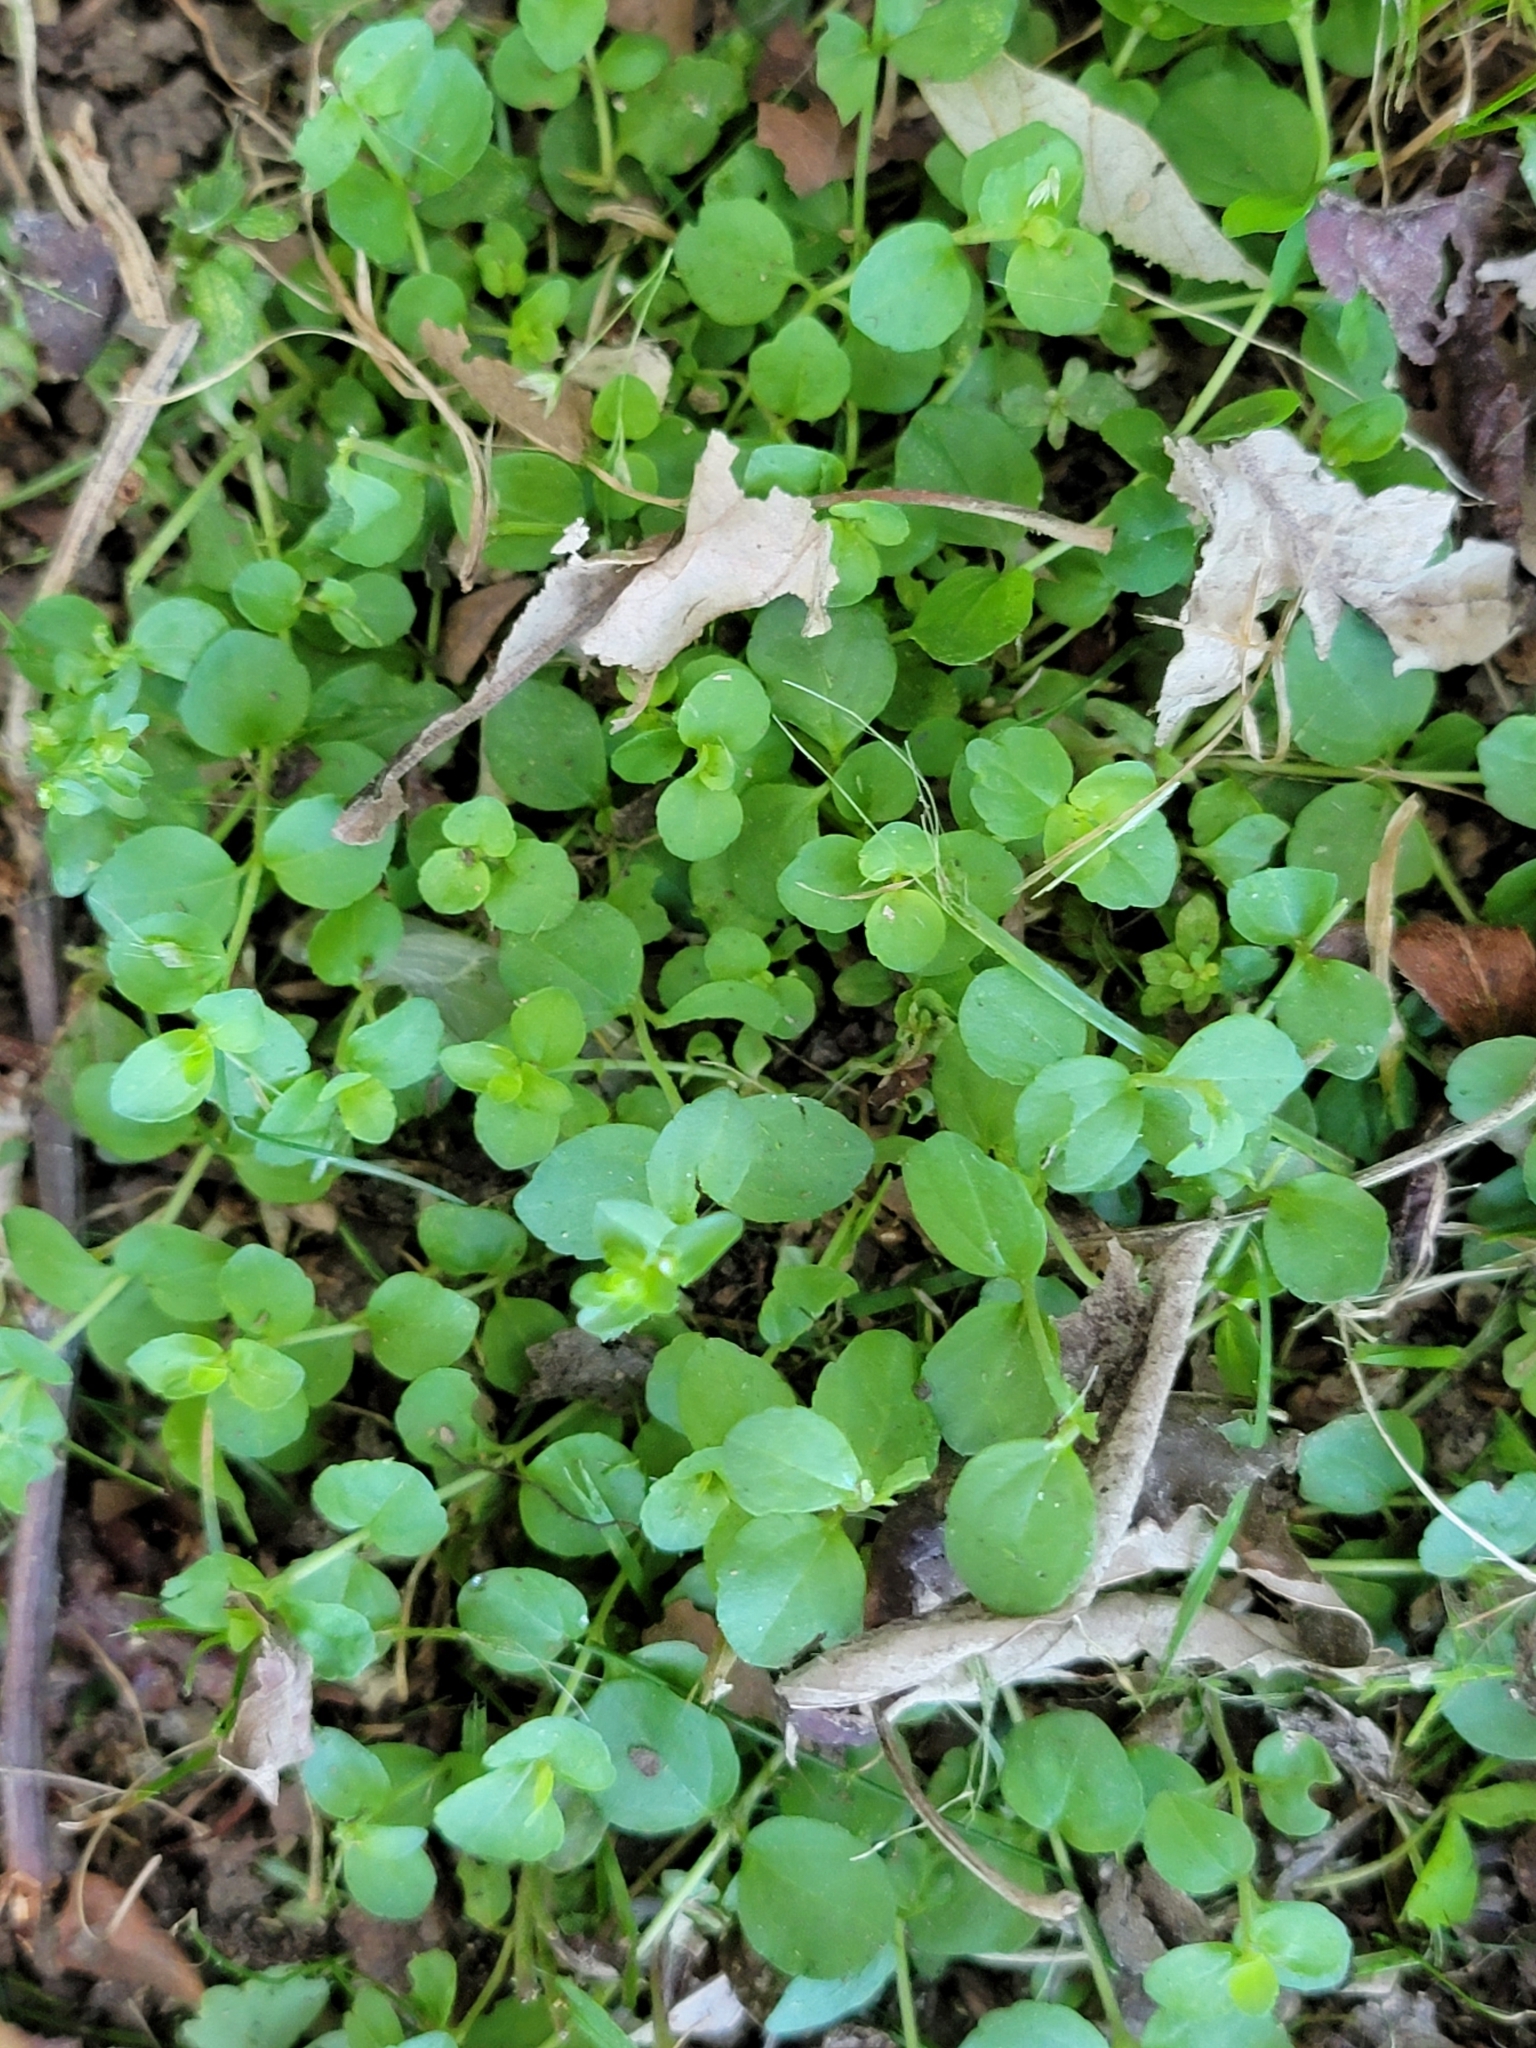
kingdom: Plantae
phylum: Tracheophyta
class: Magnoliopsida
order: Saxifragales
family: Saxifragaceae
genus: Chrysosplenium
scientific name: Chrysosplenium americanum
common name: American golden-saxifrage
